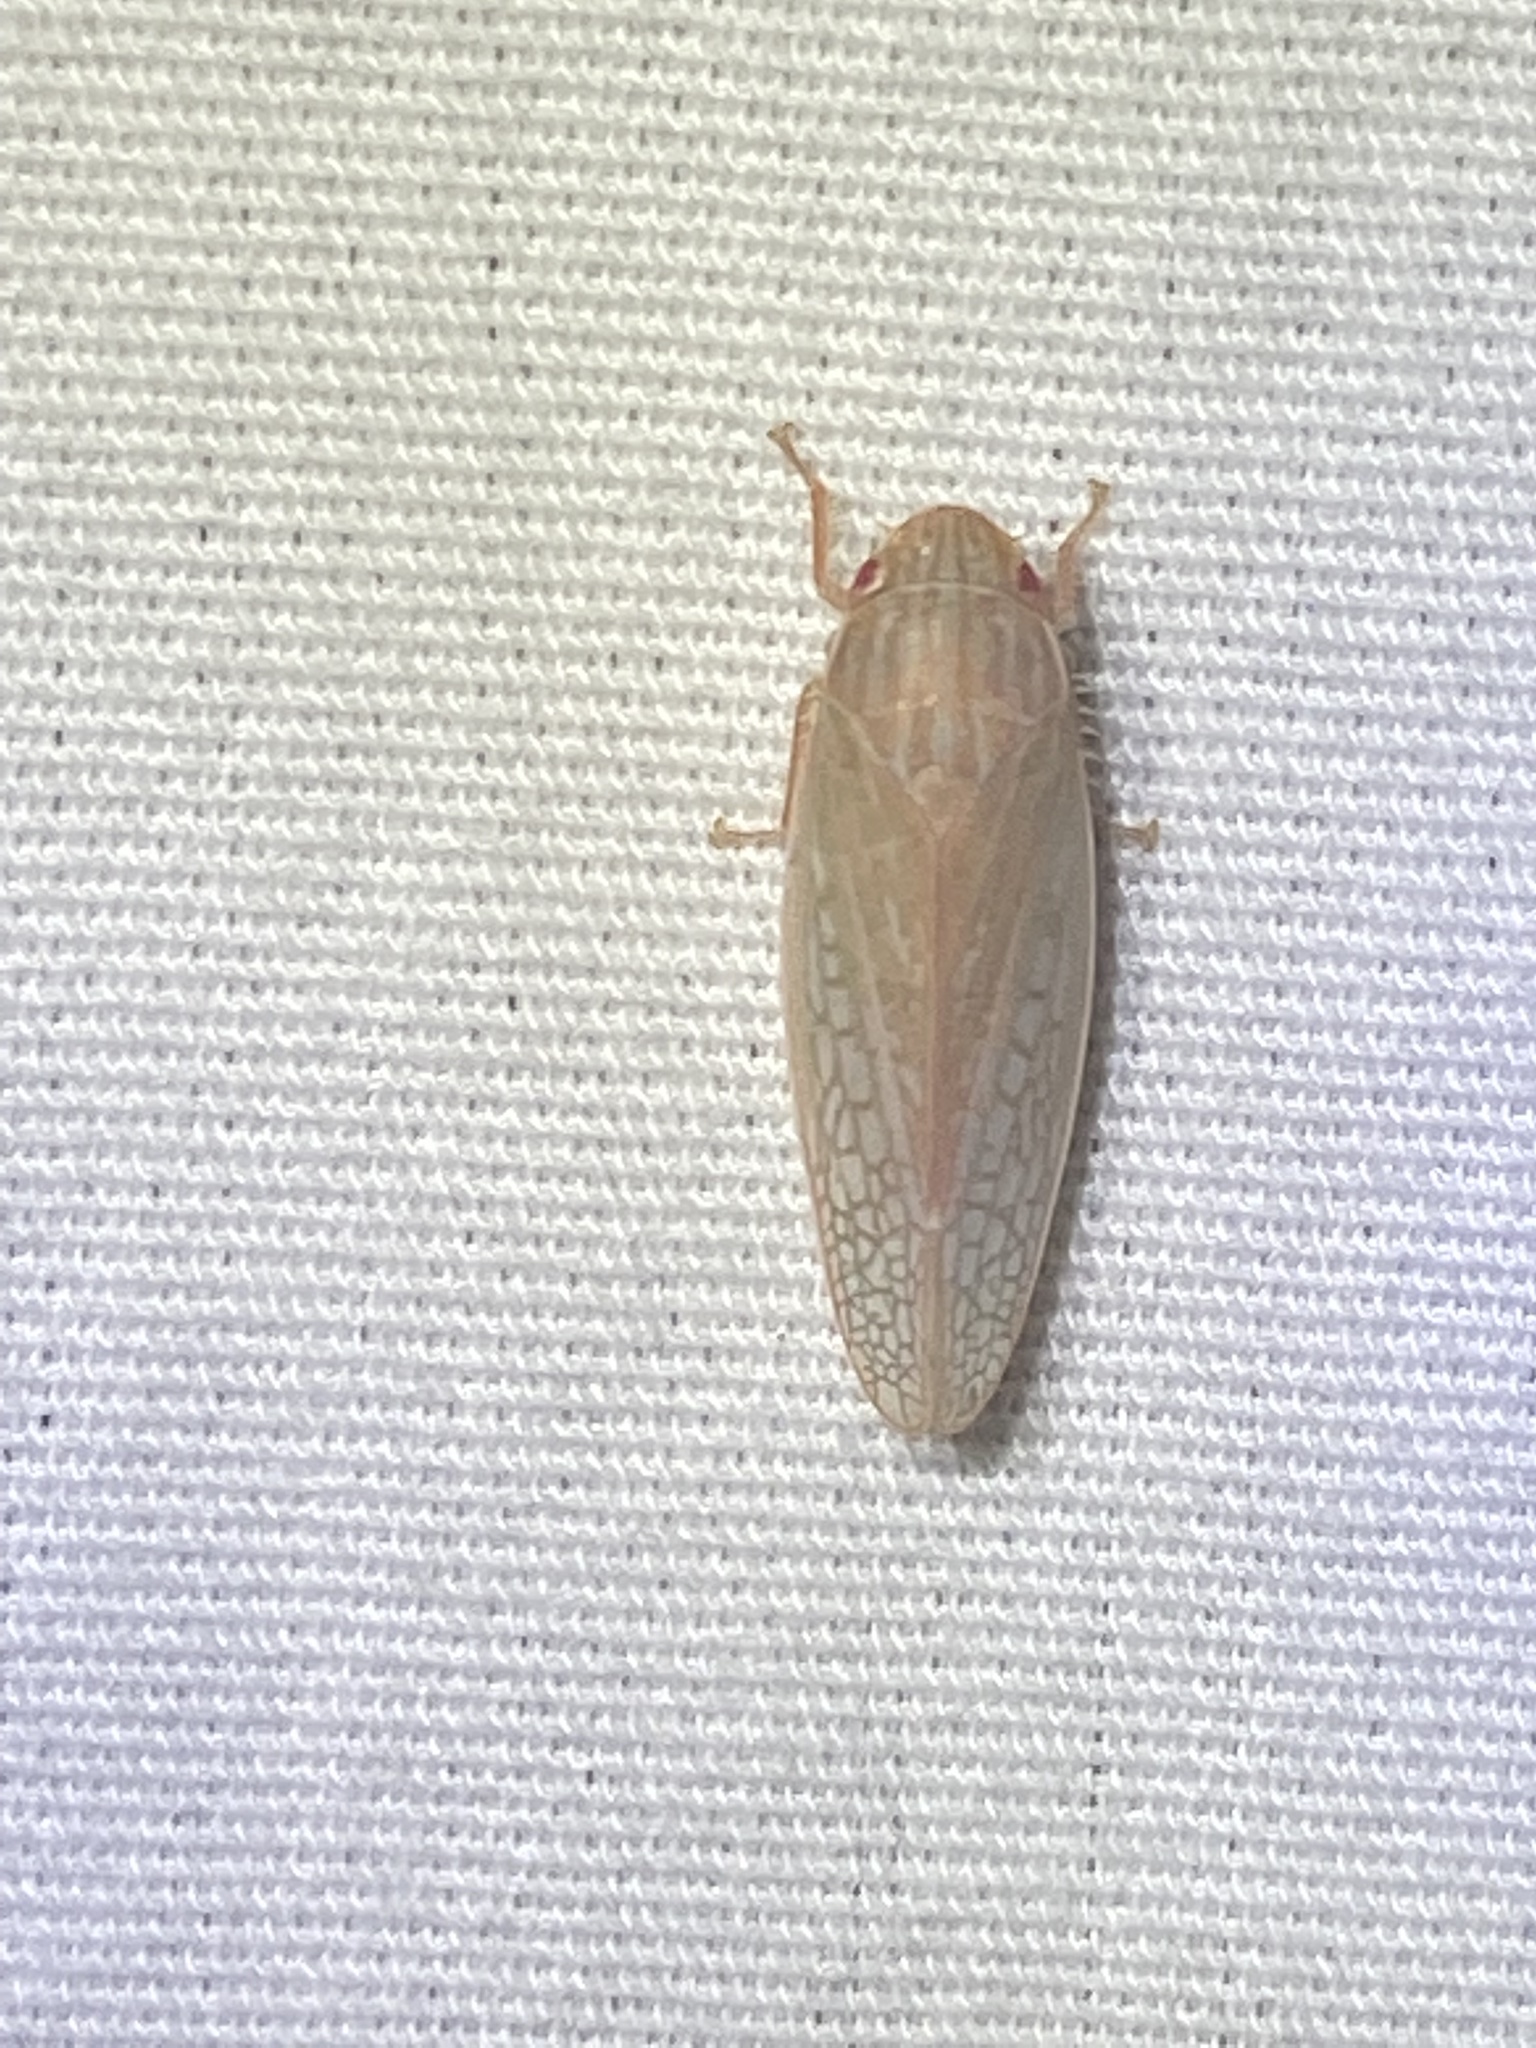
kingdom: Animalia
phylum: Arthropoda
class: Insecta
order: Hemiptera
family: Cicadellidae
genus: Gyponana
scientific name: Gyponana gladia
